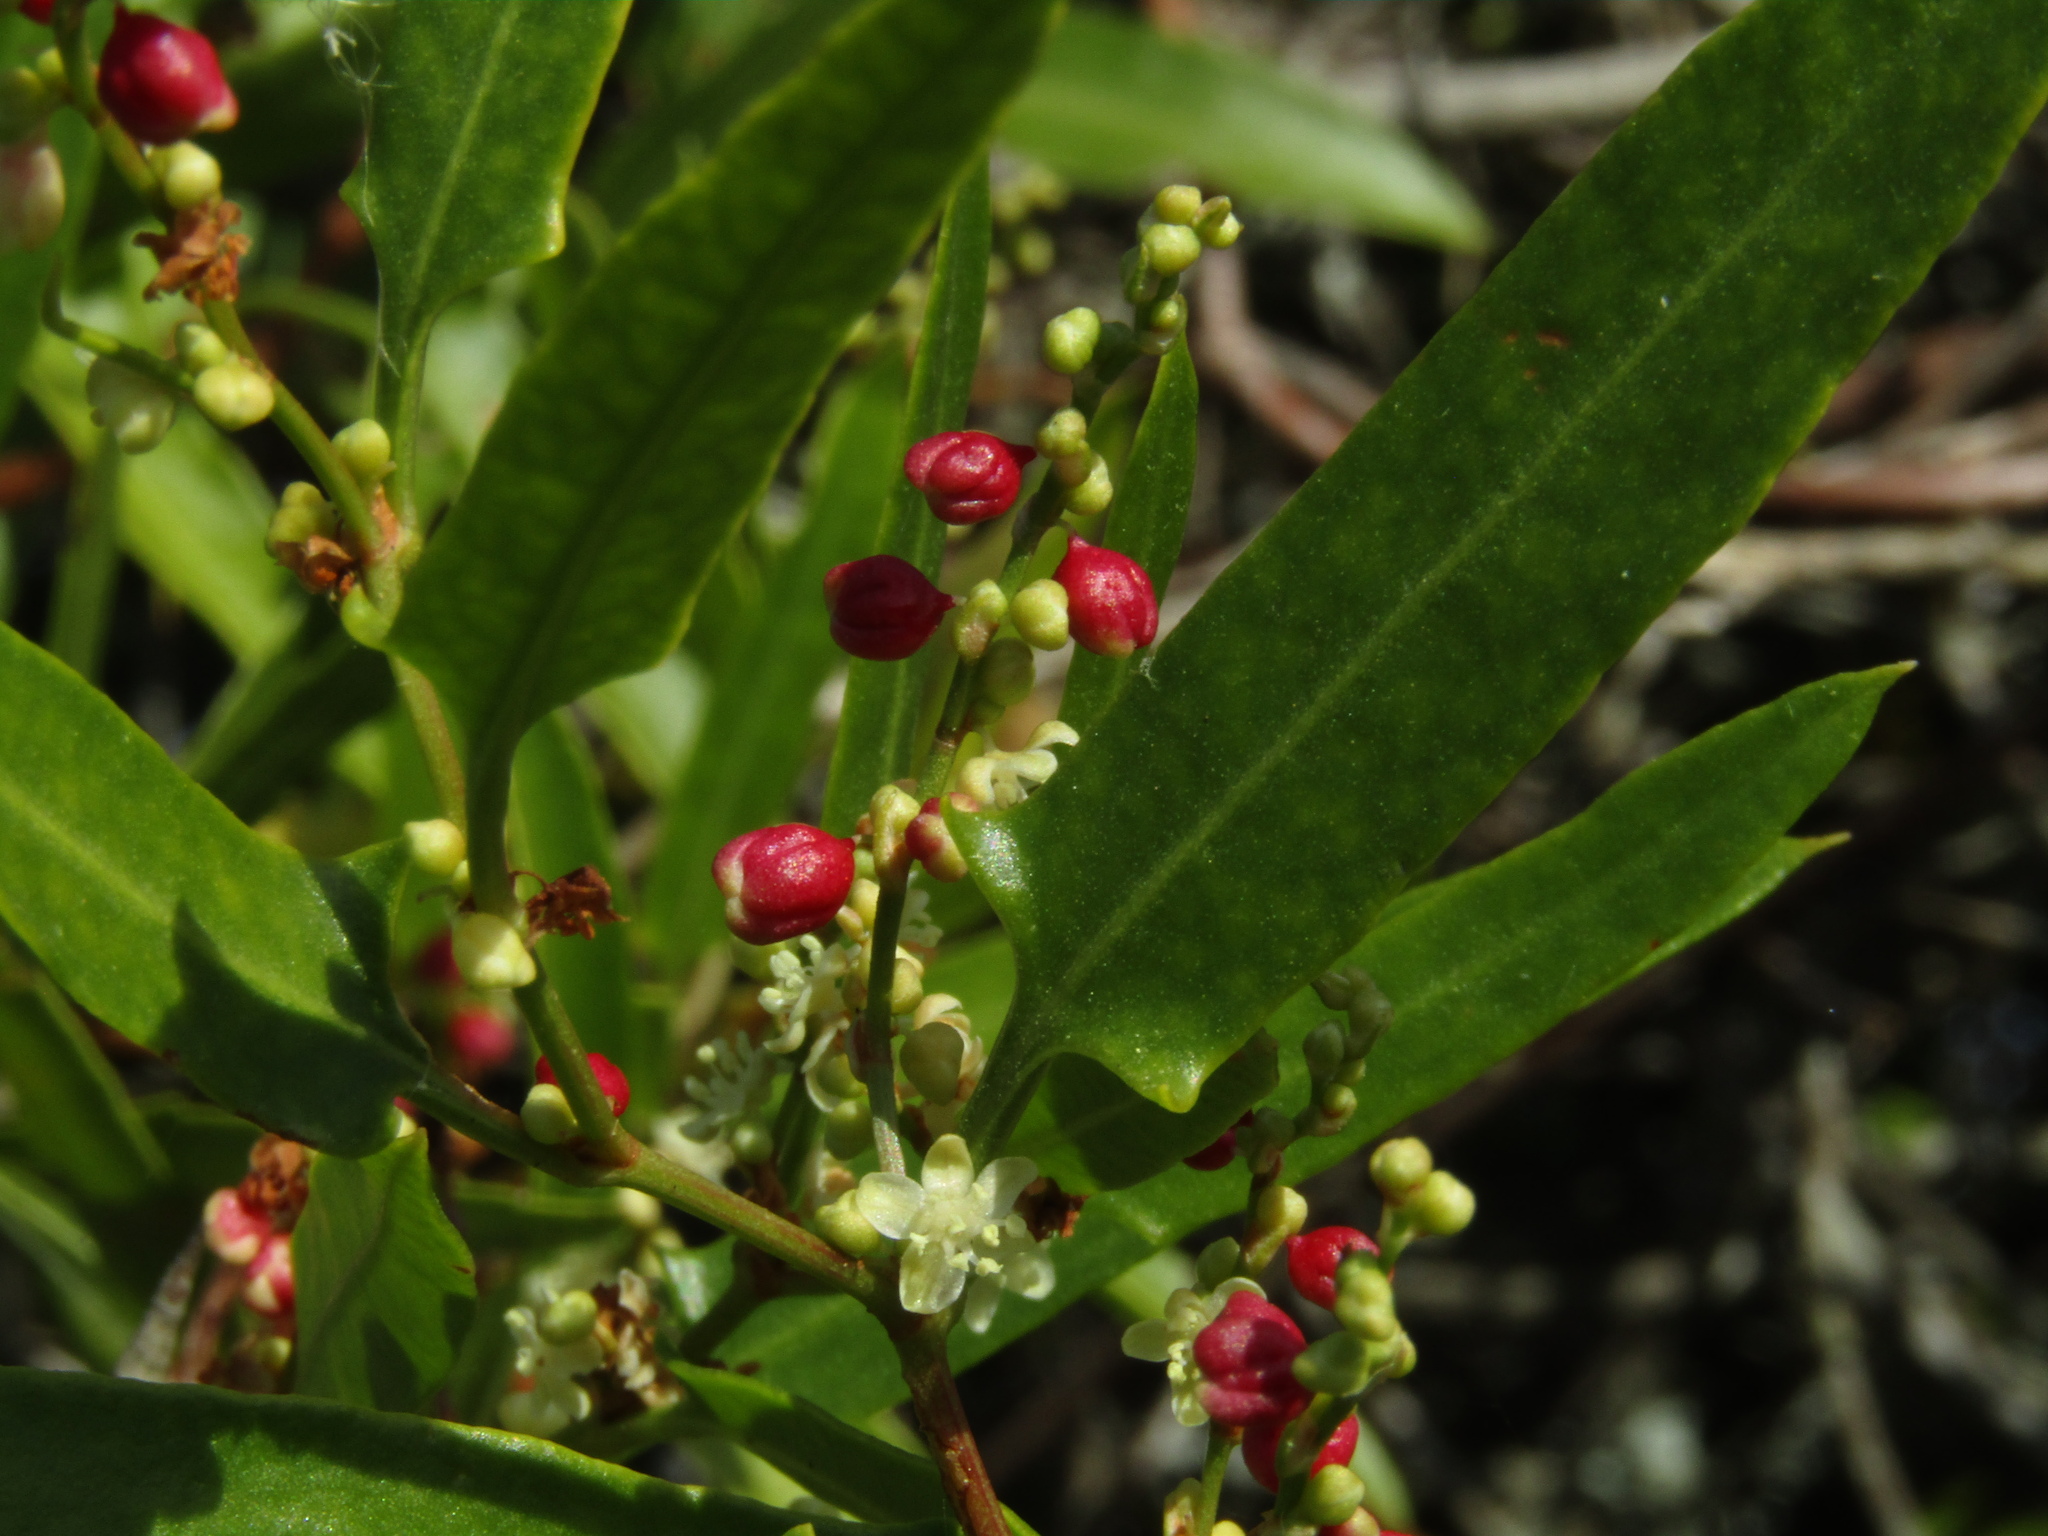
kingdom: Plantae
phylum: Tracheophyta
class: Magnoliopsida
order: Caryophyllales
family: Polygonaceae
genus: Muehlenbeckia
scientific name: Muehlenbeckia sagittifolia
